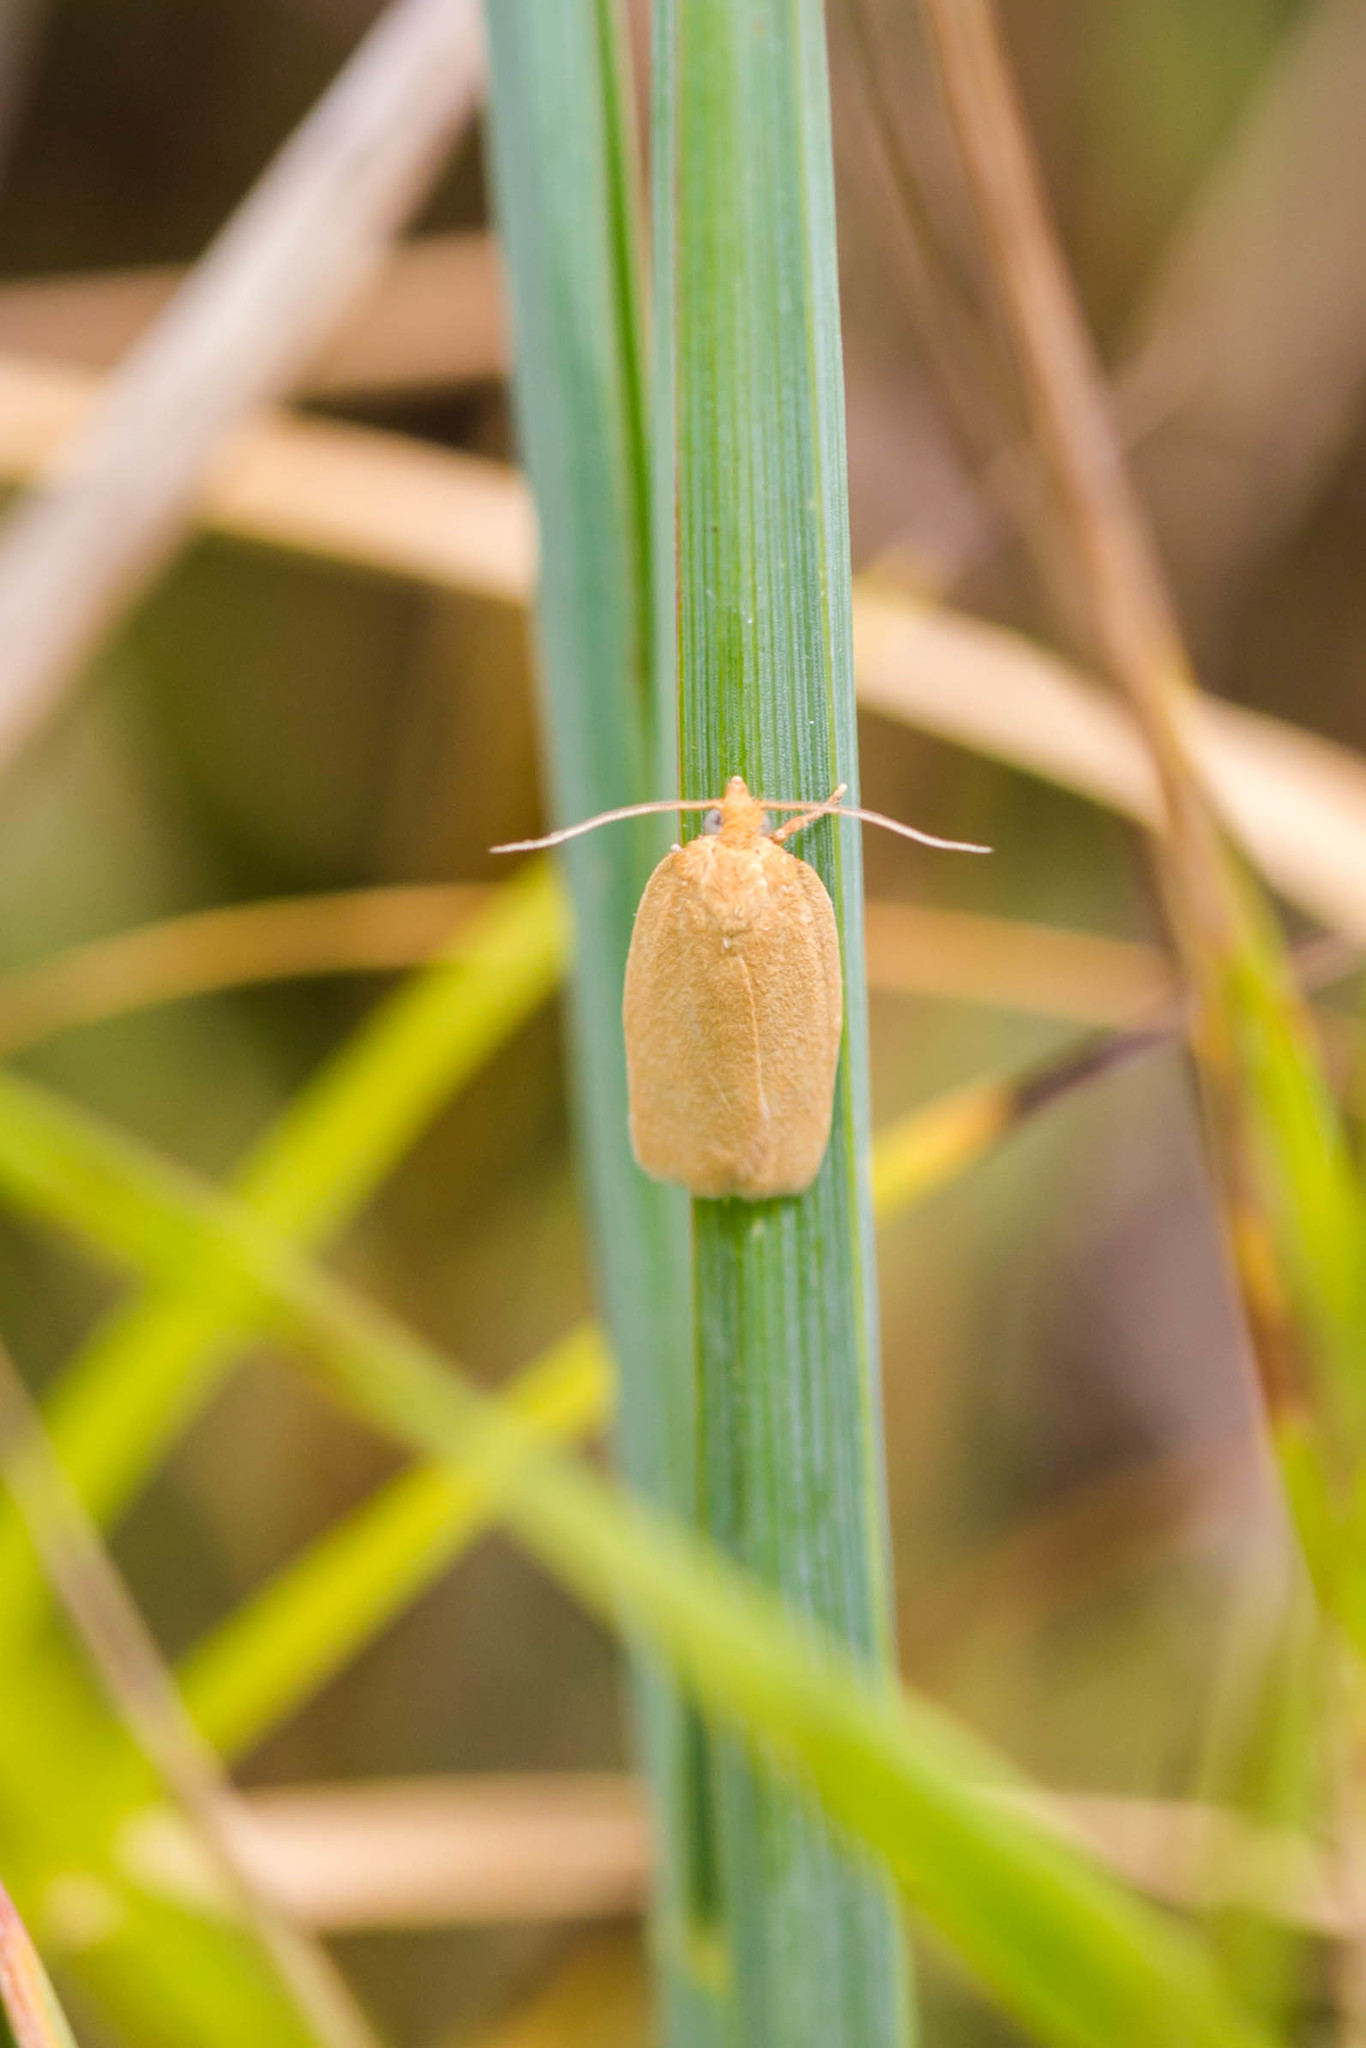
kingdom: Animalia
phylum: Arthropoda
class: Insecta
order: Lepidoptera
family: Tortricidae
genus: Xenotemna
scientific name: Xenotemna pallorana
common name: Pallid leafroller moth
